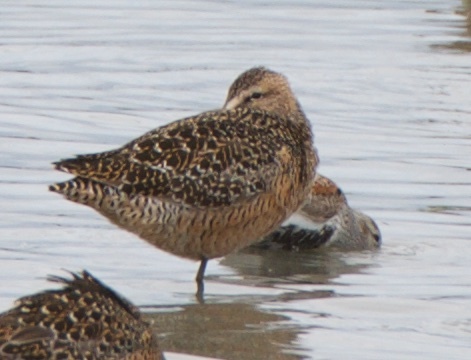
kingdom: Animalia
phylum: Chordata
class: Aves
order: Charadriiformes
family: Scolopacidae
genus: Limnodromus
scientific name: Limnodromus scolopaceus
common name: Long-billed dowitcher
